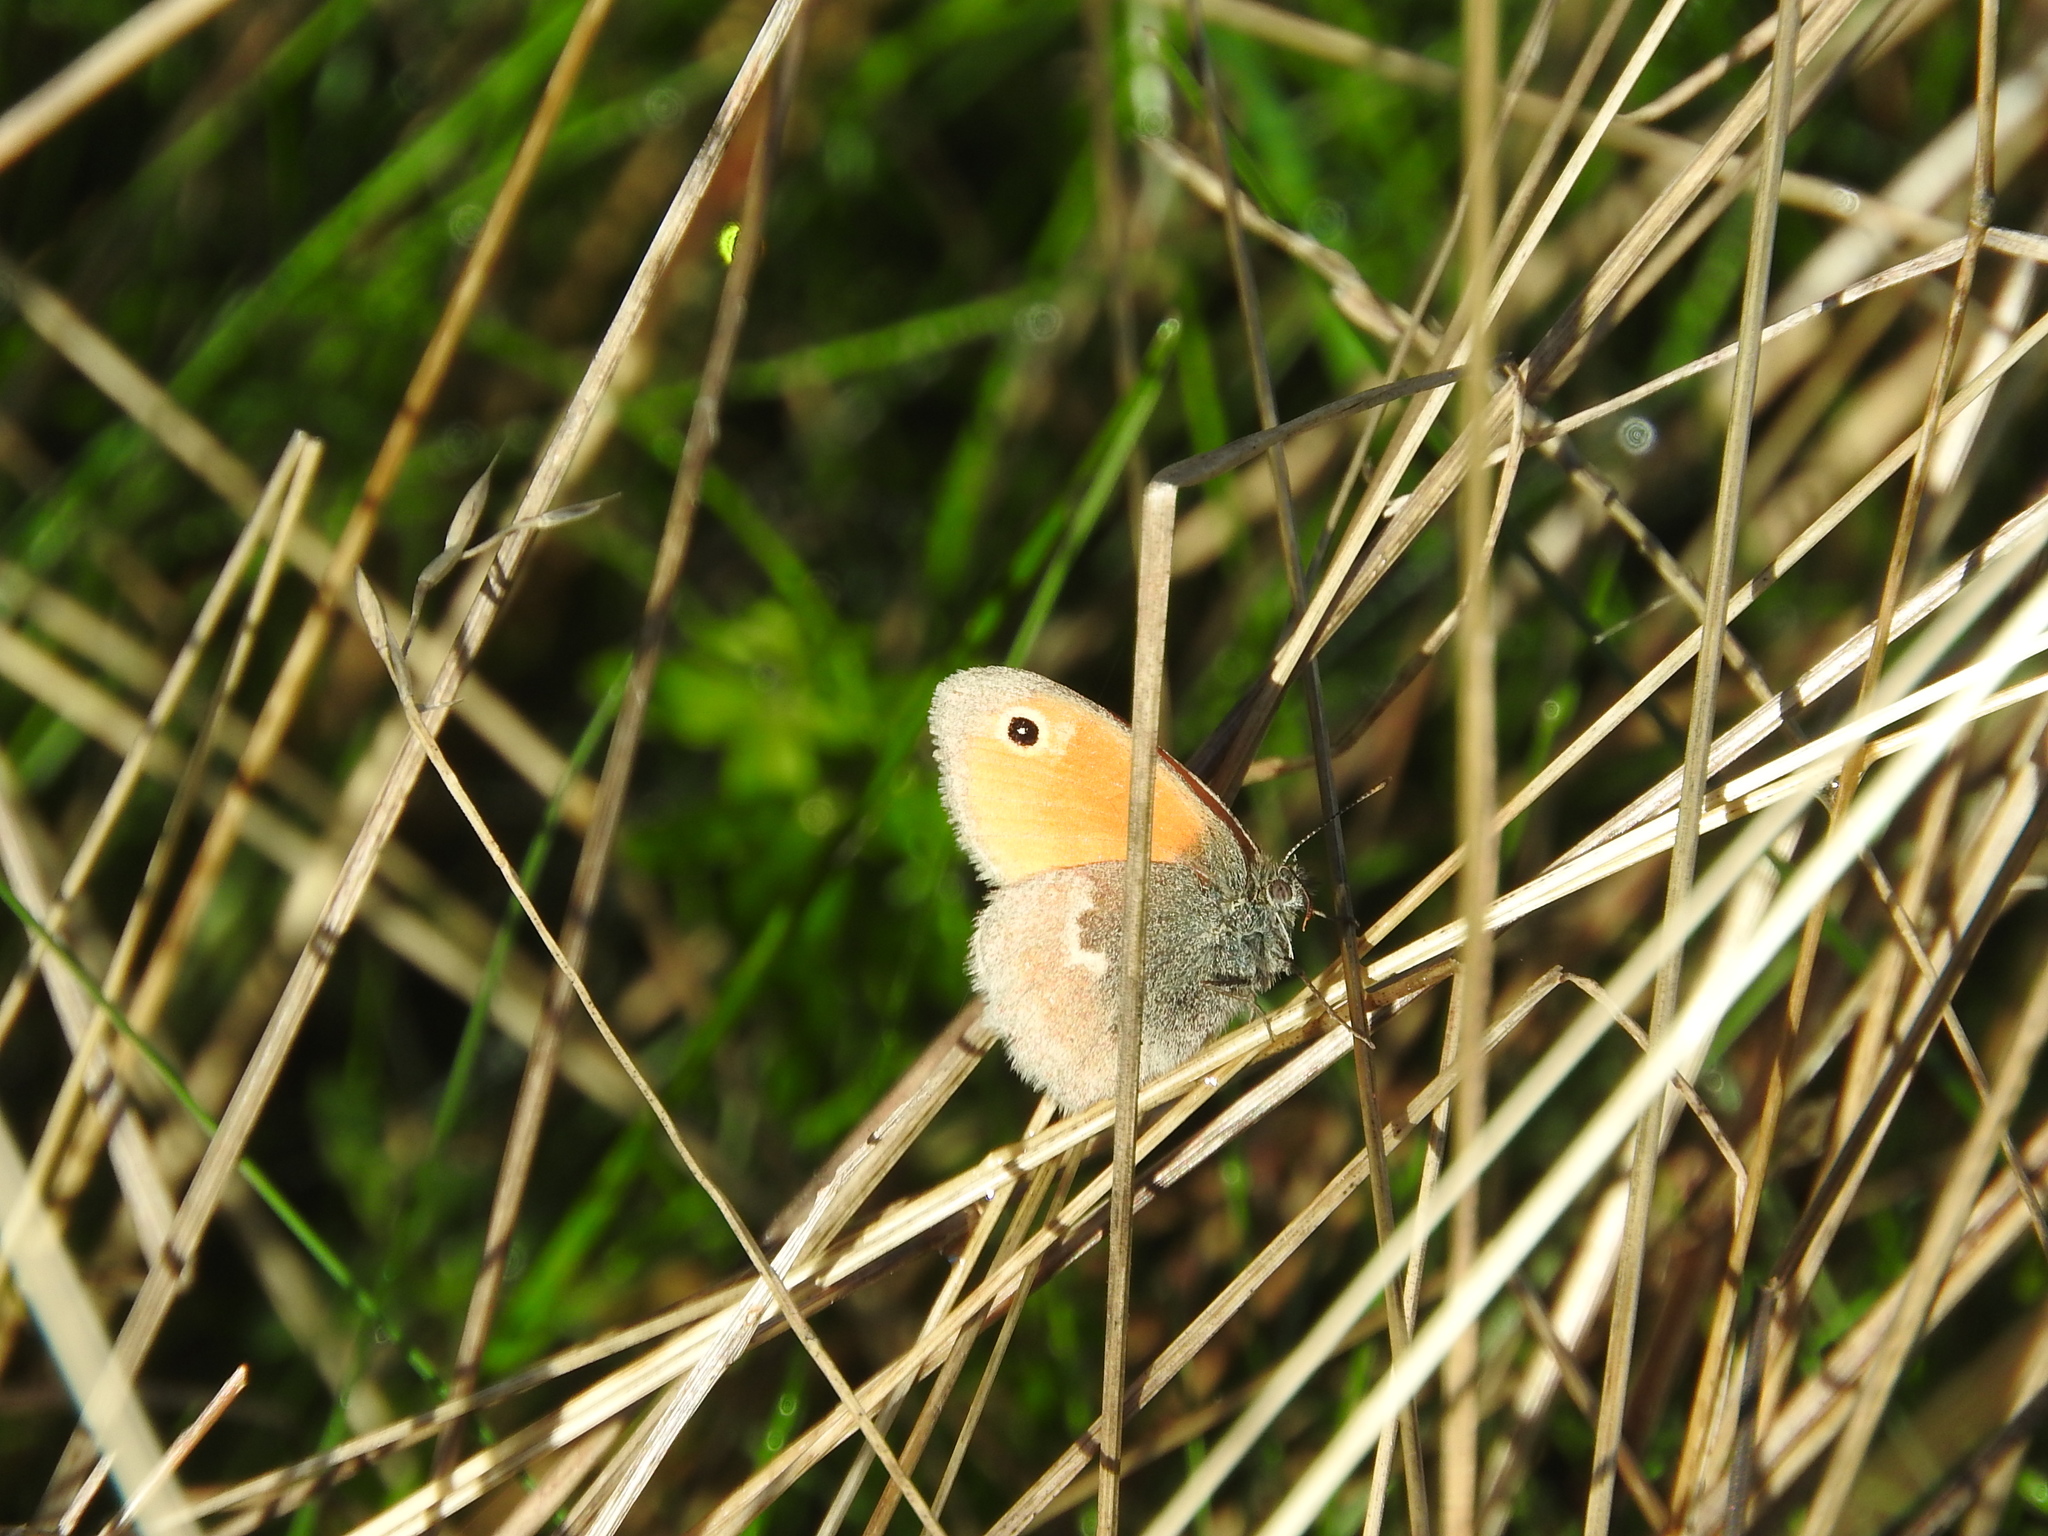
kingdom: Animalia
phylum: Arthropoda
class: Insecta
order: Lepidoptera
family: Nymphalidae
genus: Coenonympha
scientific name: Coenonympha pamphilus
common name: Small heath
